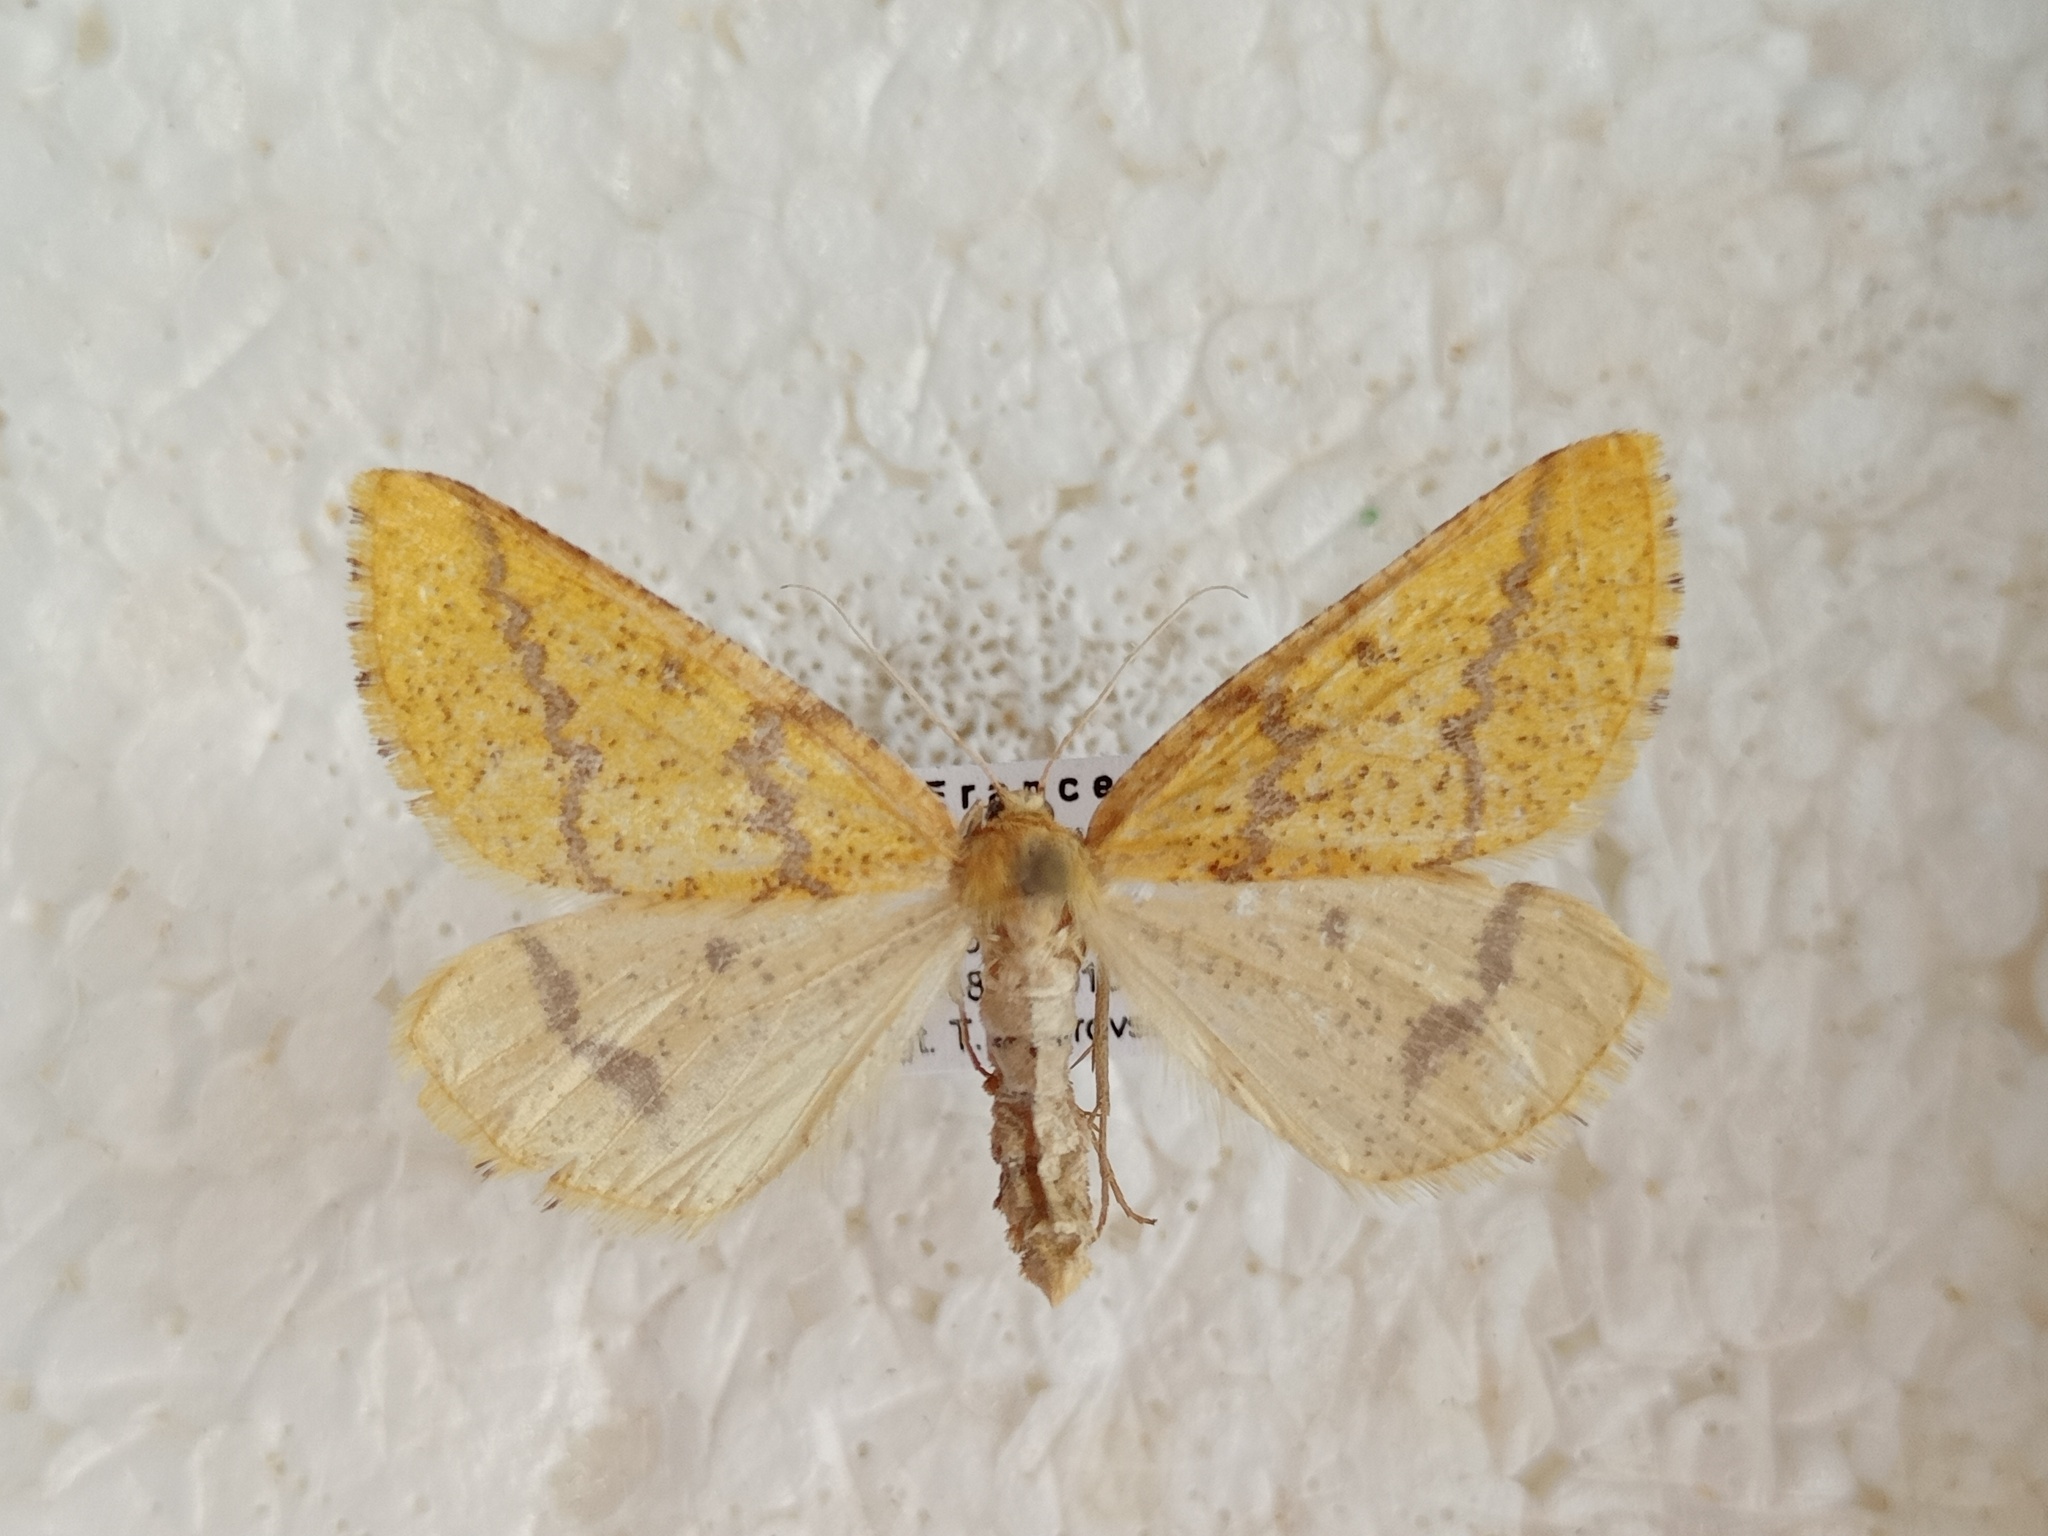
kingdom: Animalia
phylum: Arthropoda
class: Insecta
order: Lepidoptera
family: Geometridae
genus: Aspitates
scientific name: Aspitates ochrearia
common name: Yellow belle
